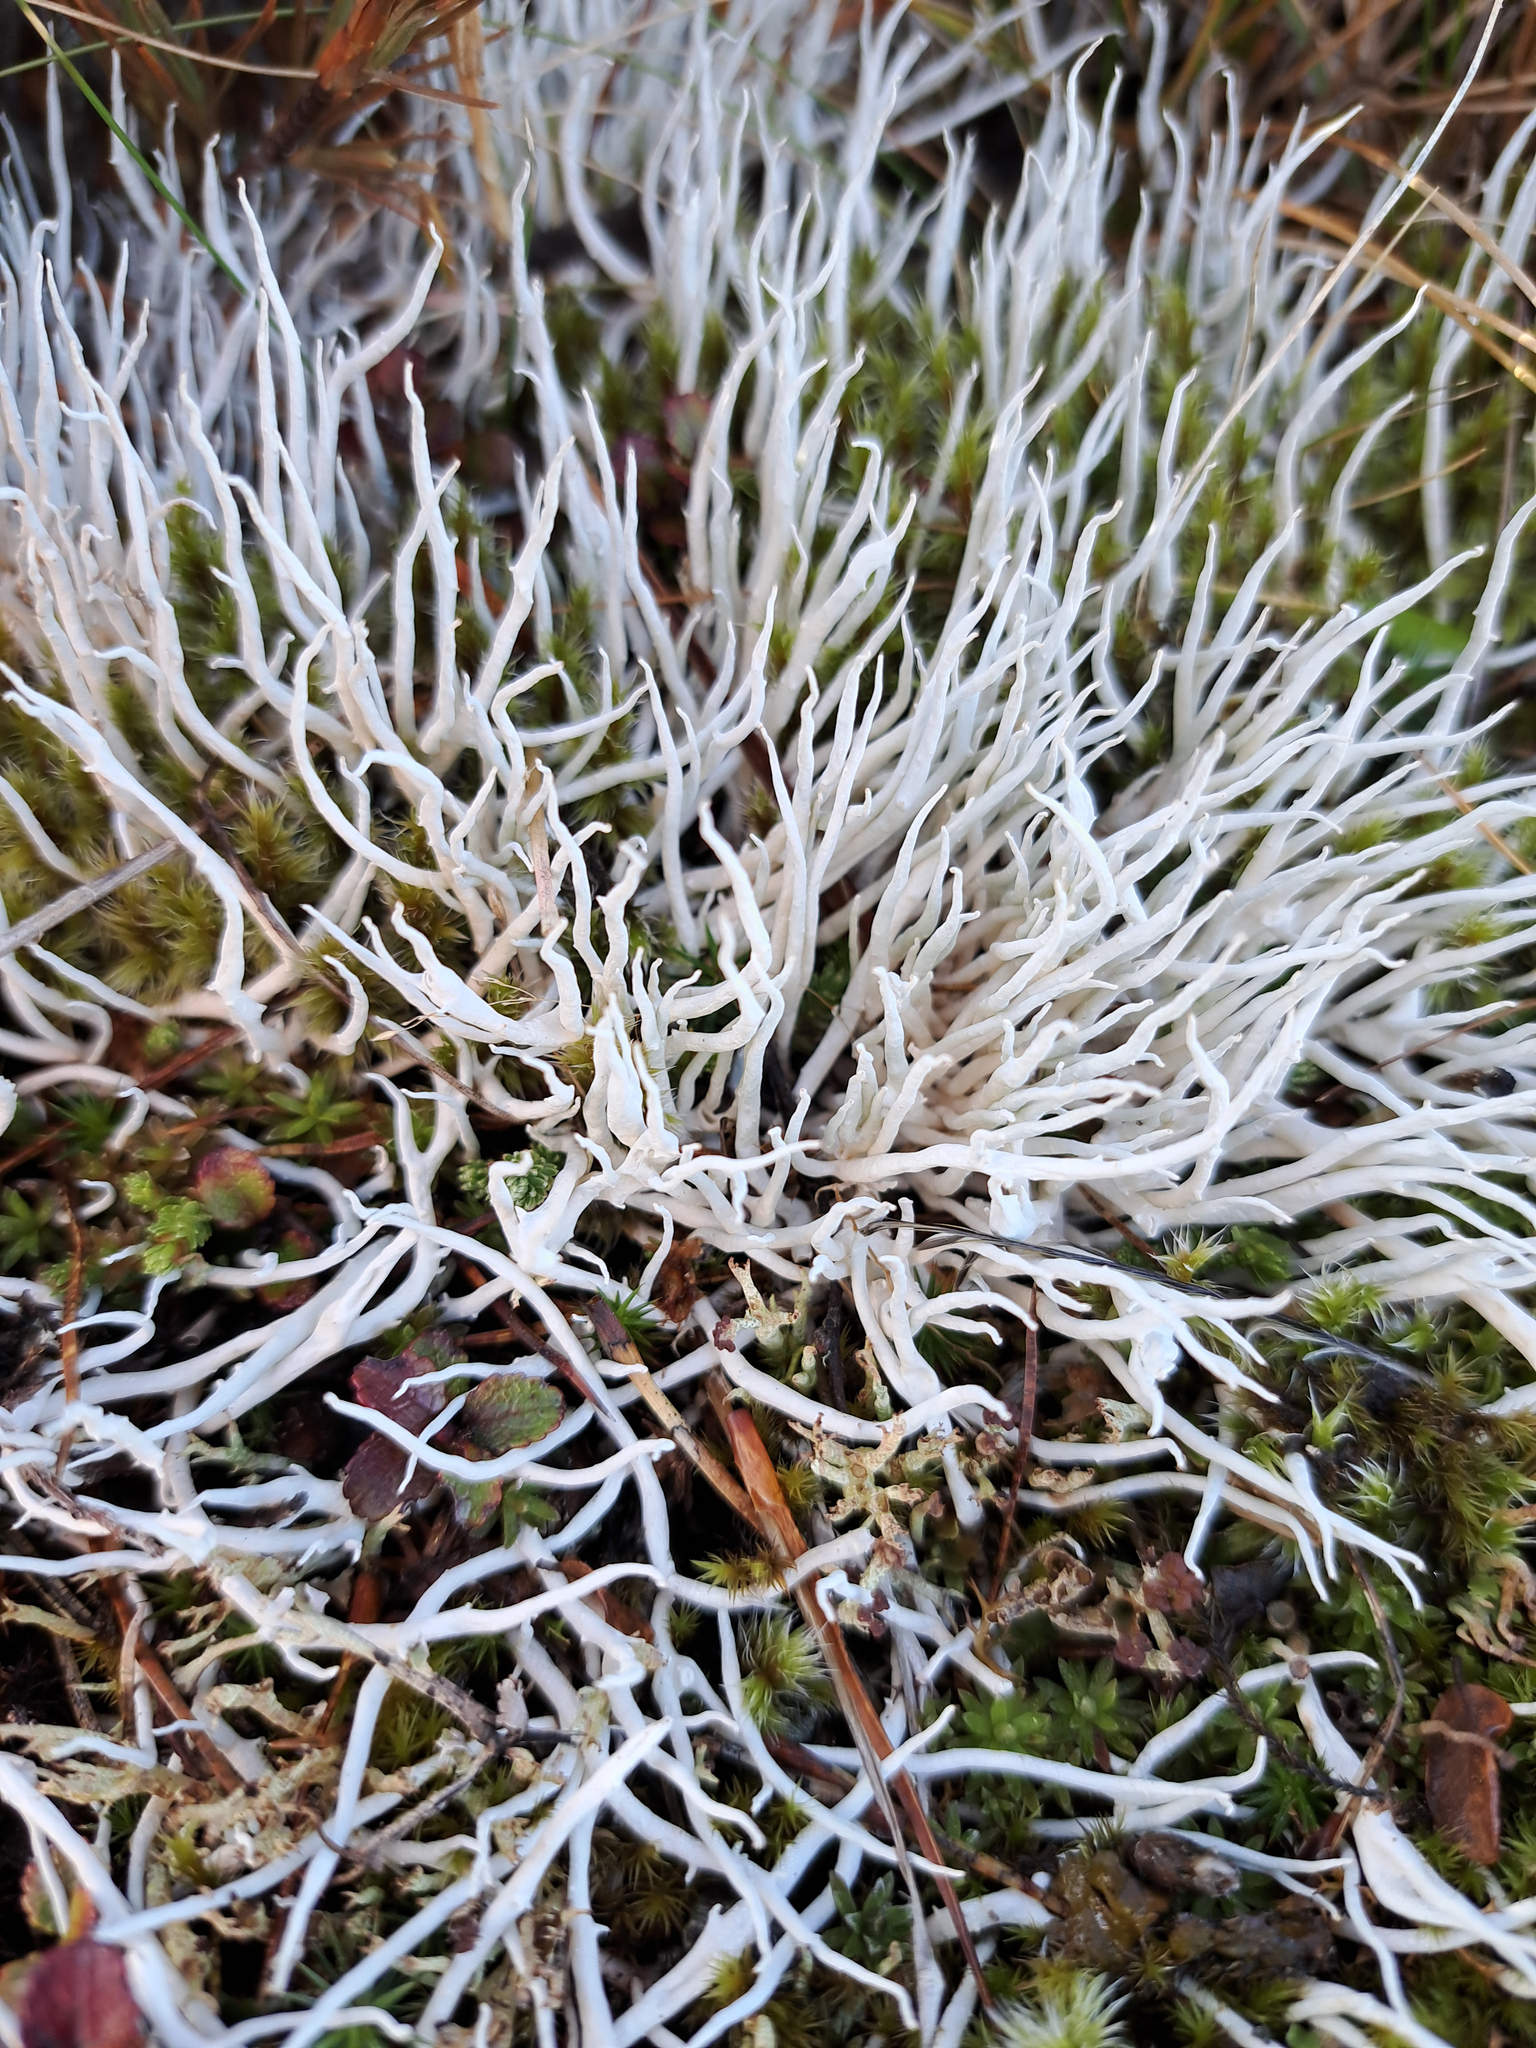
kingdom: Fungi
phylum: Ascomycota
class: Lecanoromycetes
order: Pertusariales
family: Icmadophilaceae
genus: Thamnolia
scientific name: Thamnolia vermicularis
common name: Whiteworm lichen
